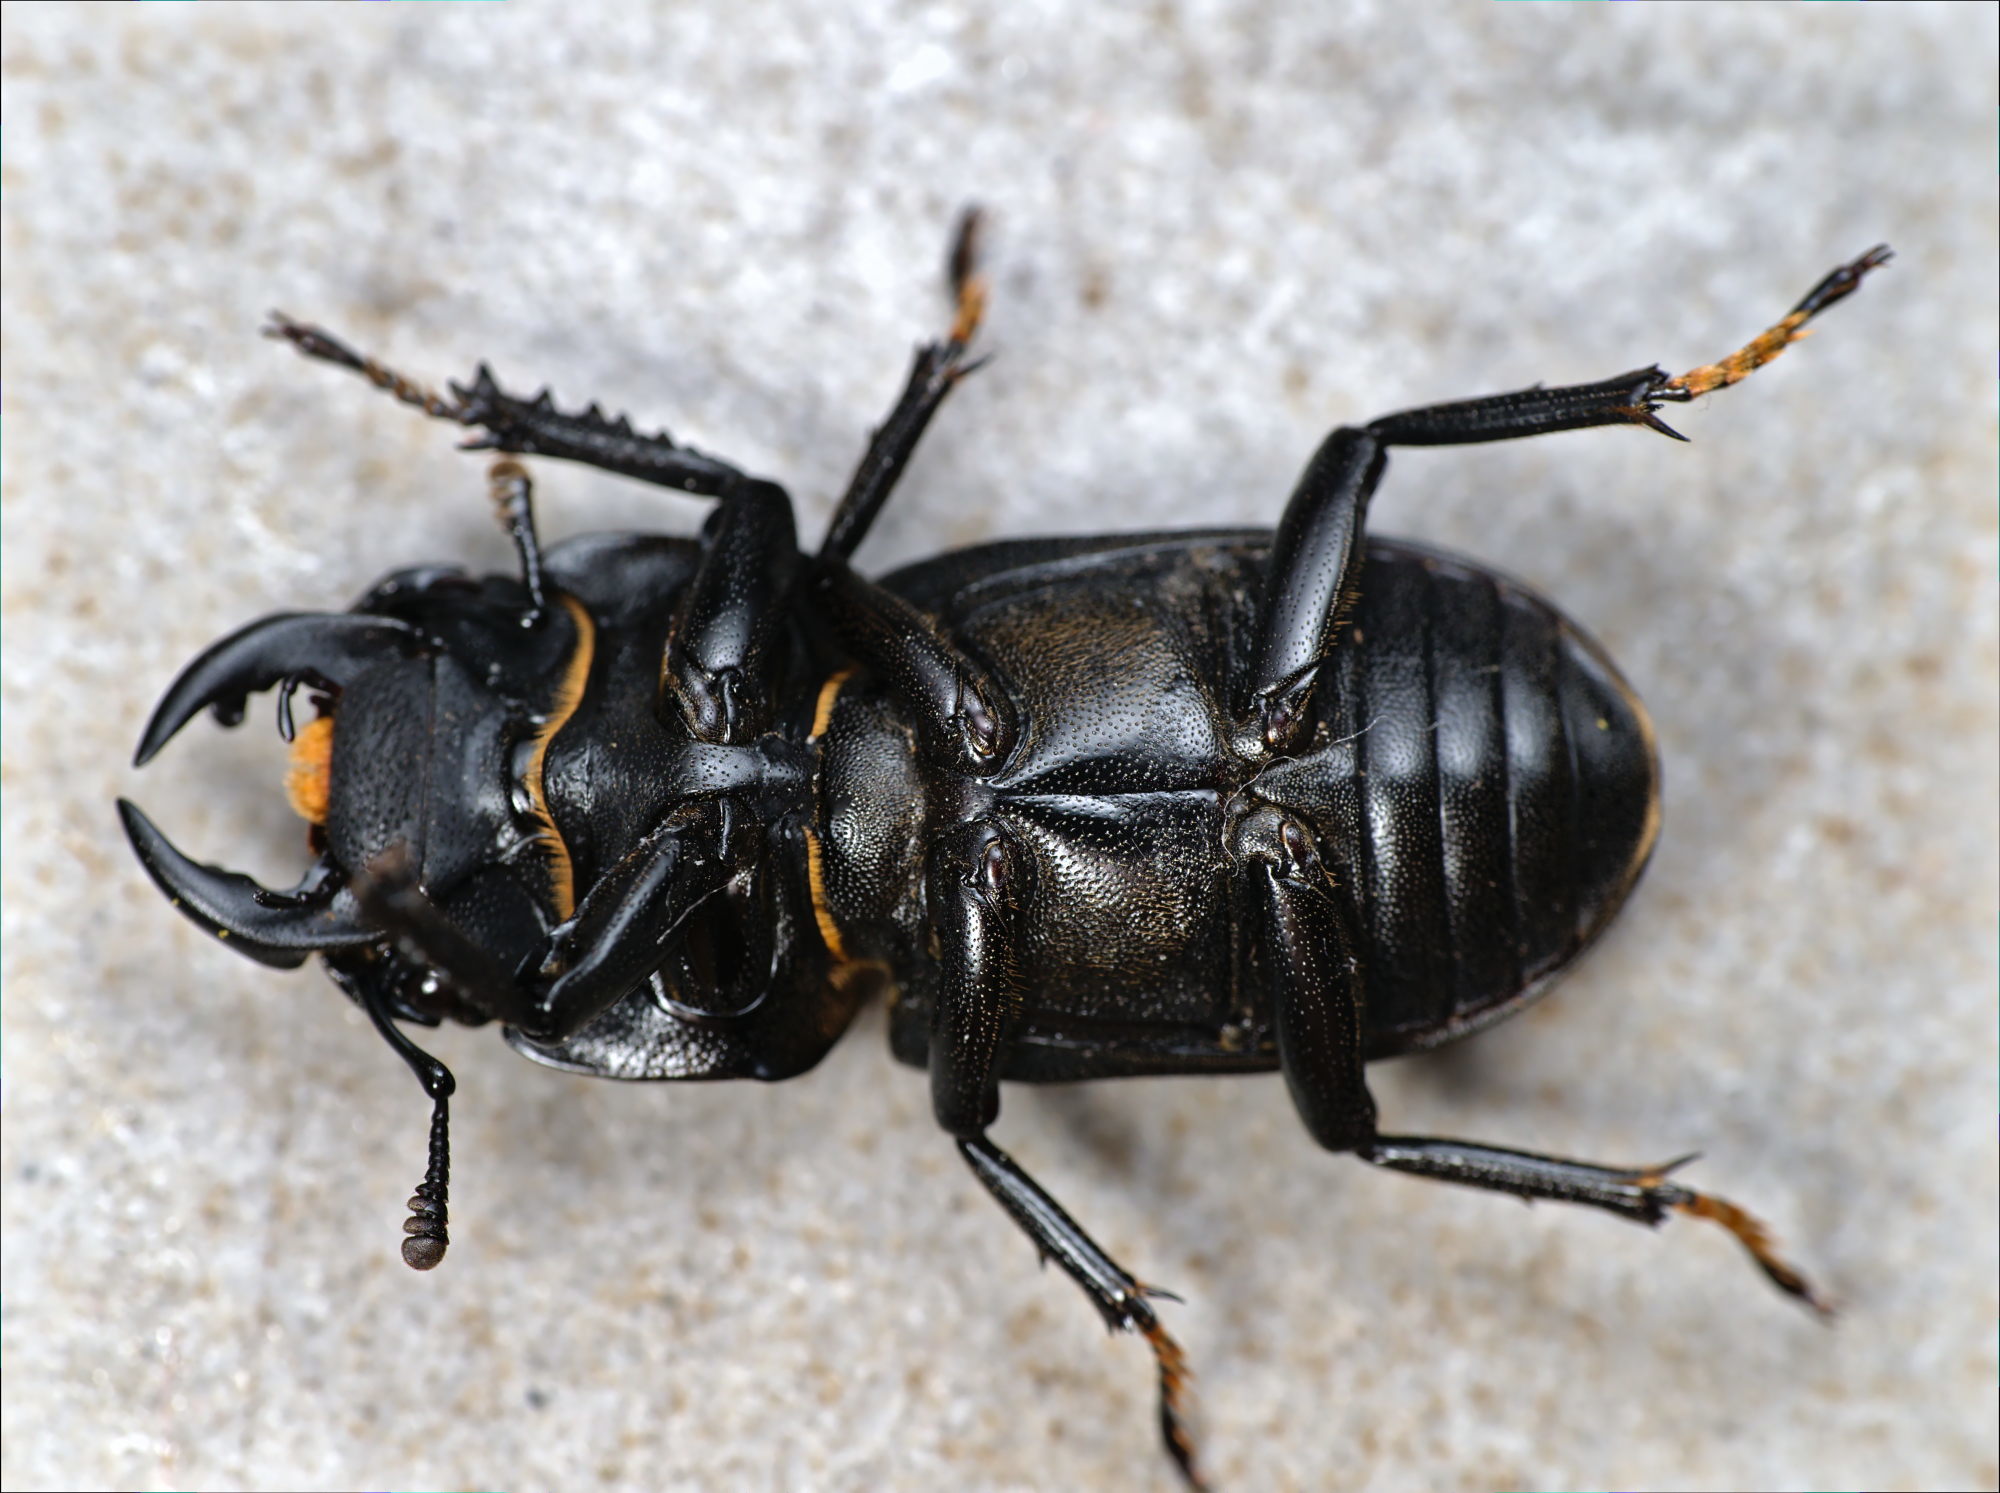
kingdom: Animalia
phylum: Arthropoda
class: Insecta
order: Coleoptera
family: Lucanidae
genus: Dorcus
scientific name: Dorcus parallelipipedus
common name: Lesser stag beetle
